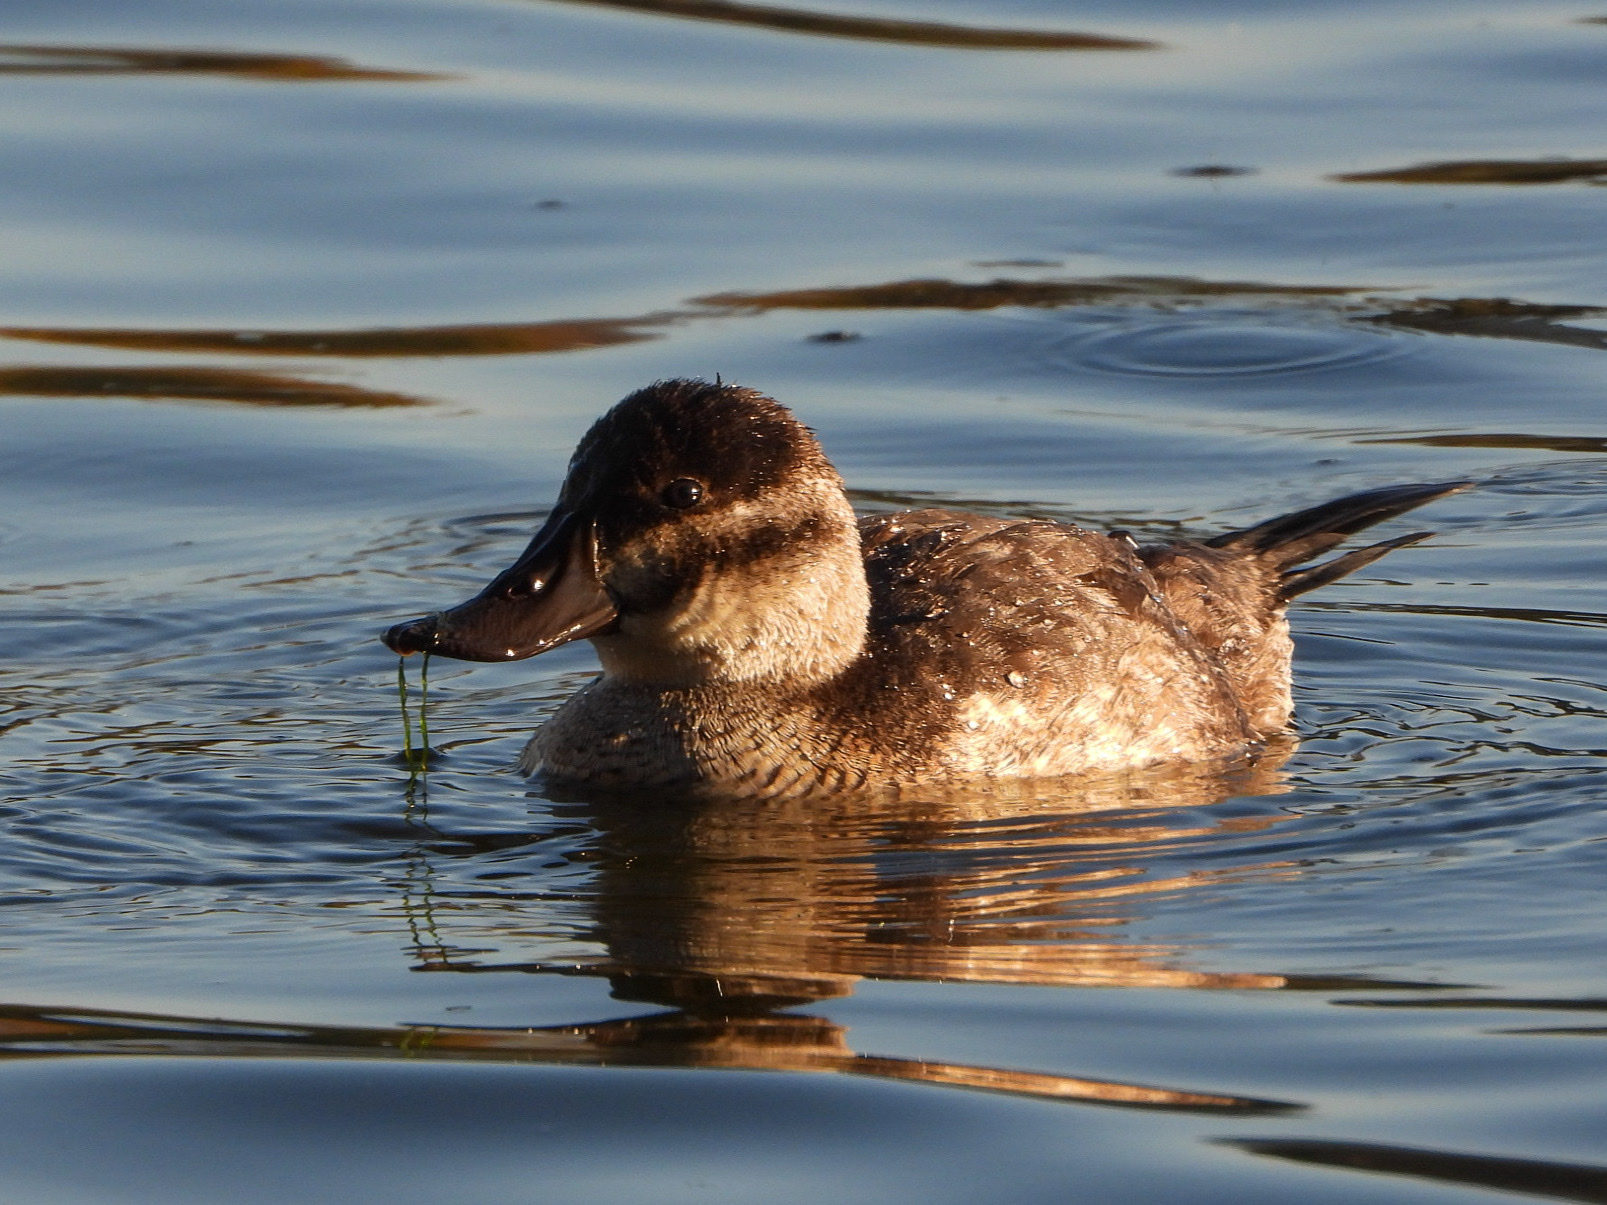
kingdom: Animalia
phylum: Chordata
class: Aves
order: Anseriformes
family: Anatidae
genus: Oxyura
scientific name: Oxyura jamaicensis
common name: Ruddy duck
